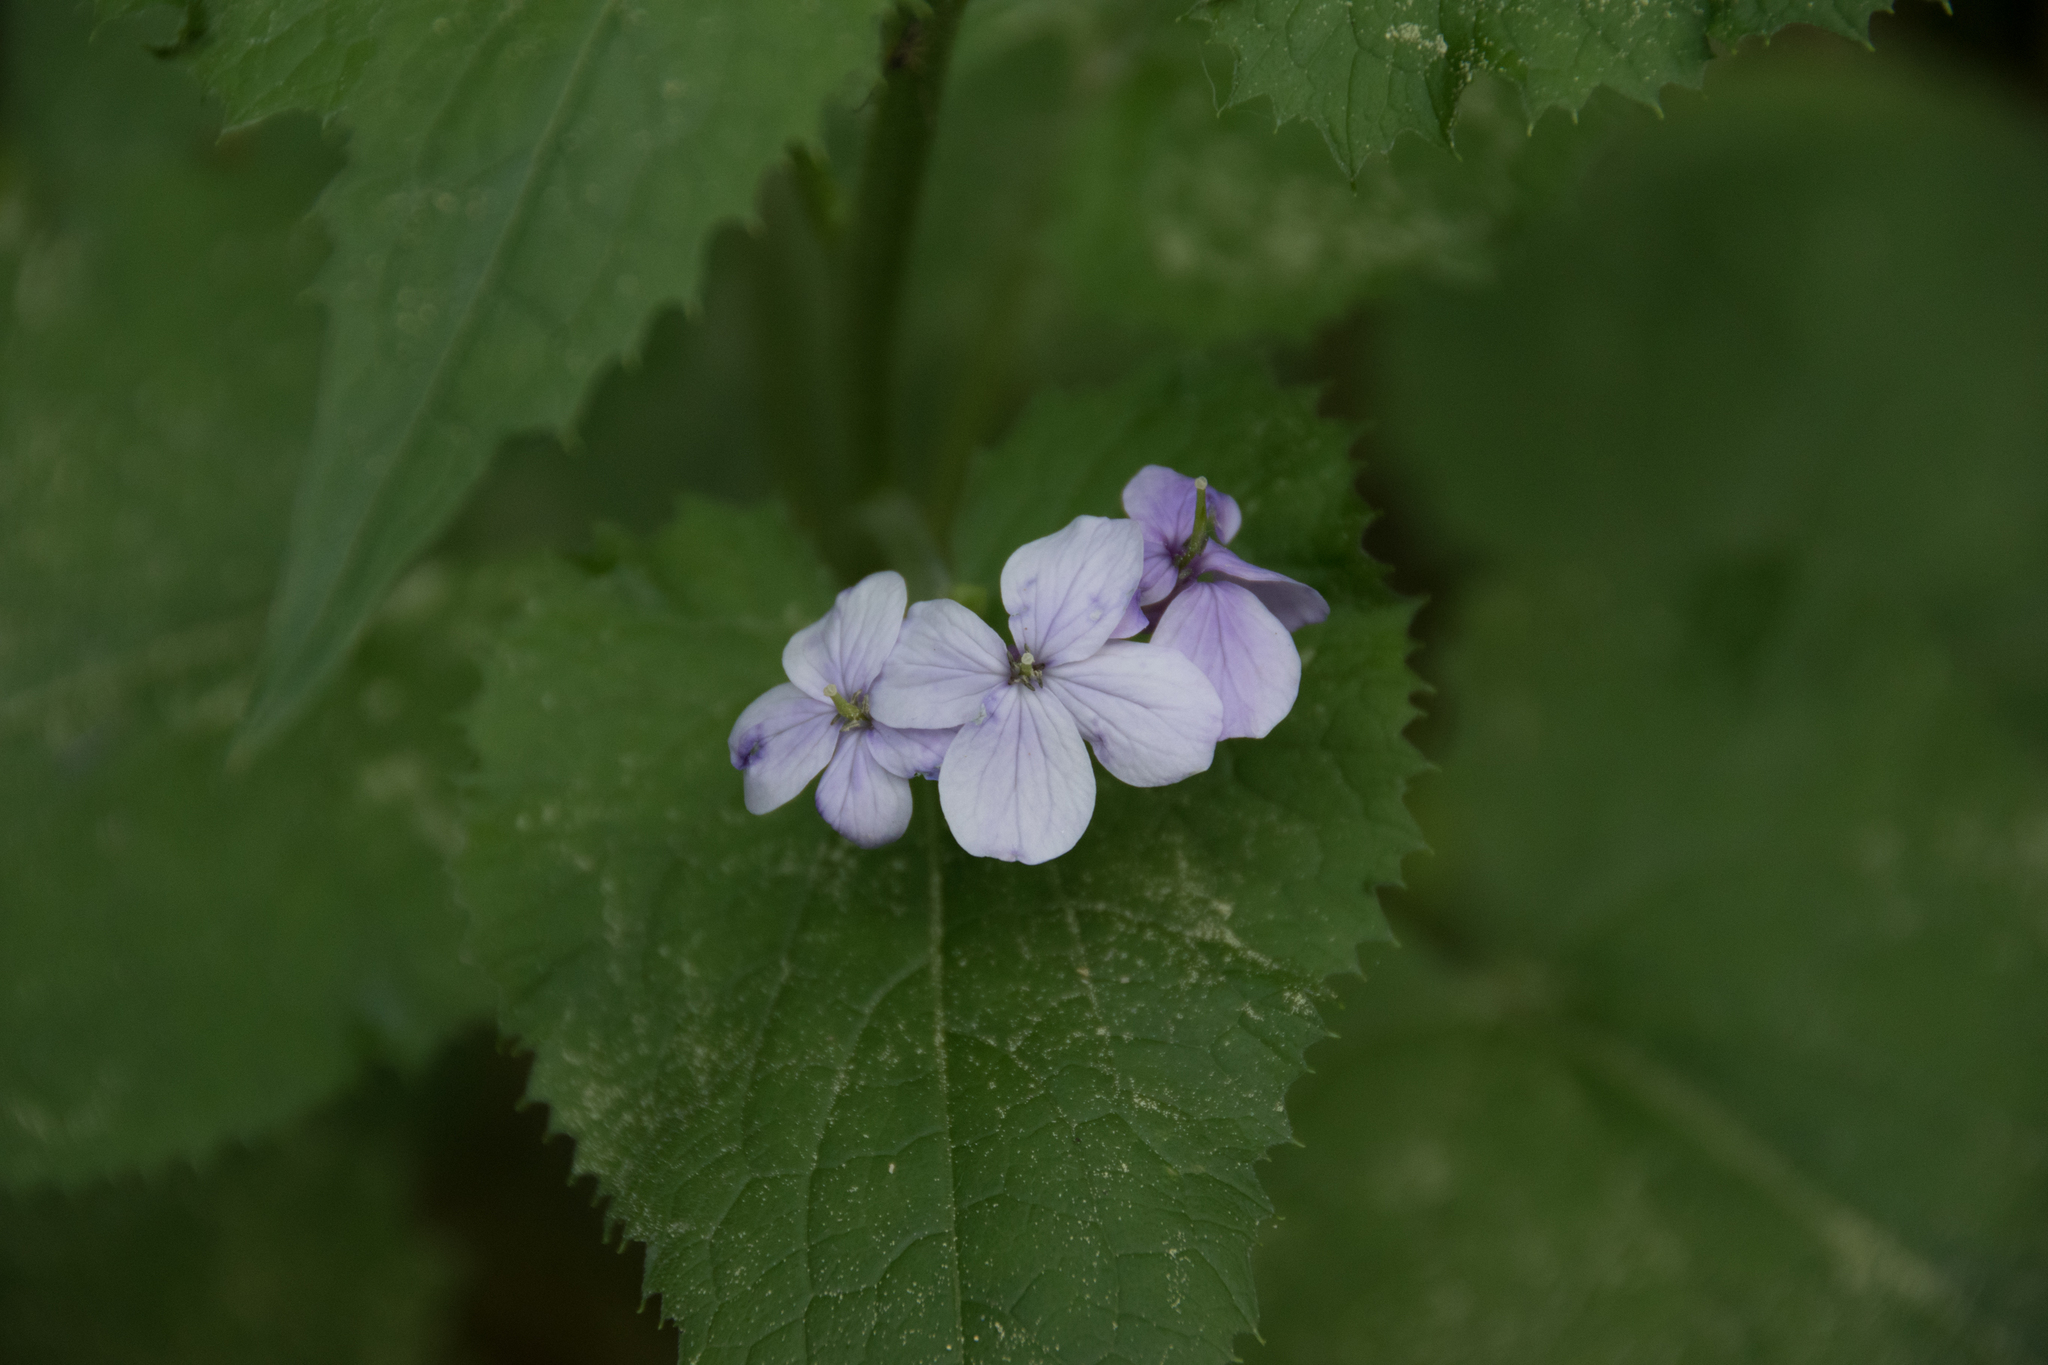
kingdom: Plantae
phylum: Tracheophyta
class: Magnoliopsida
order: Brassicales
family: Brassicaceae
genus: Lunaria
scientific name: Lunaria rediviva
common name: Perennial honesty
